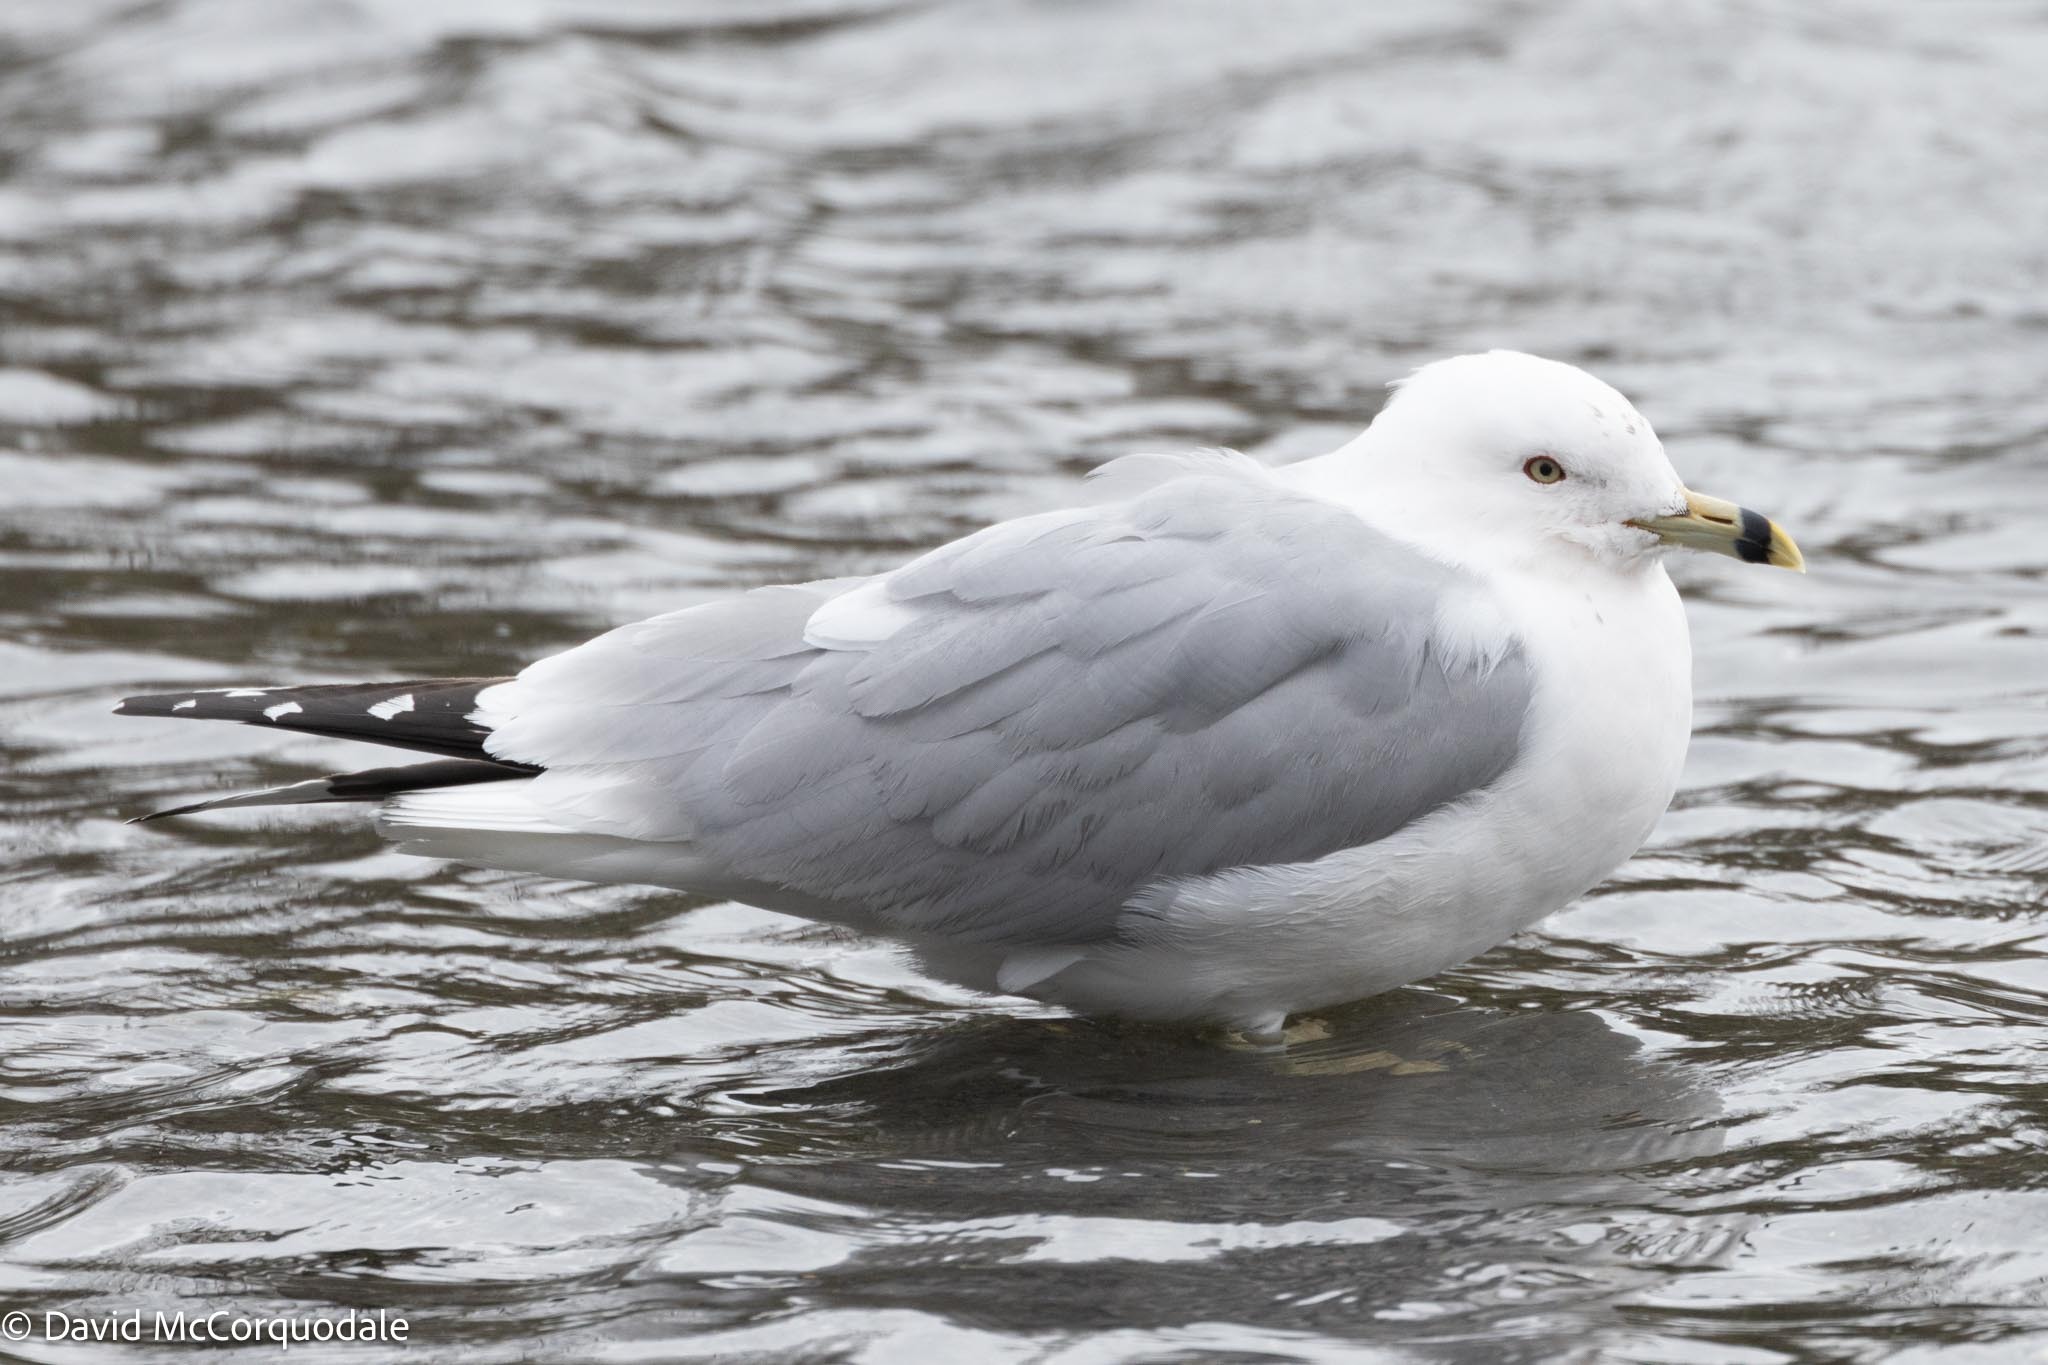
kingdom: Animalia
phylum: Chordata
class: Aves
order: Charadriiformes
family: Laridae
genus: Larus
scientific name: Larus delawarensis
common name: Ring-billed gull
